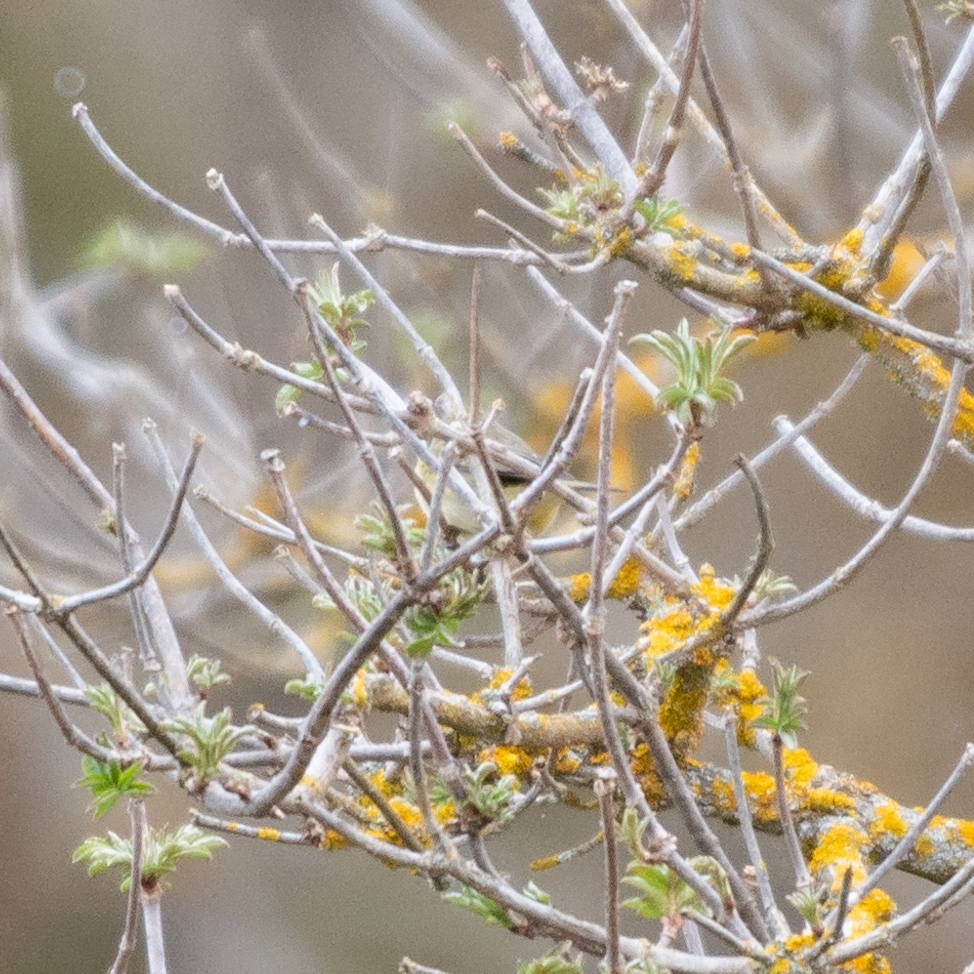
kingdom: Animalia
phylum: Chordata
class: Aves
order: Passeriformes
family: Phylloscopidae
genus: Phylloscopus
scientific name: Phylloscopus collybita
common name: Common chiffchaff
